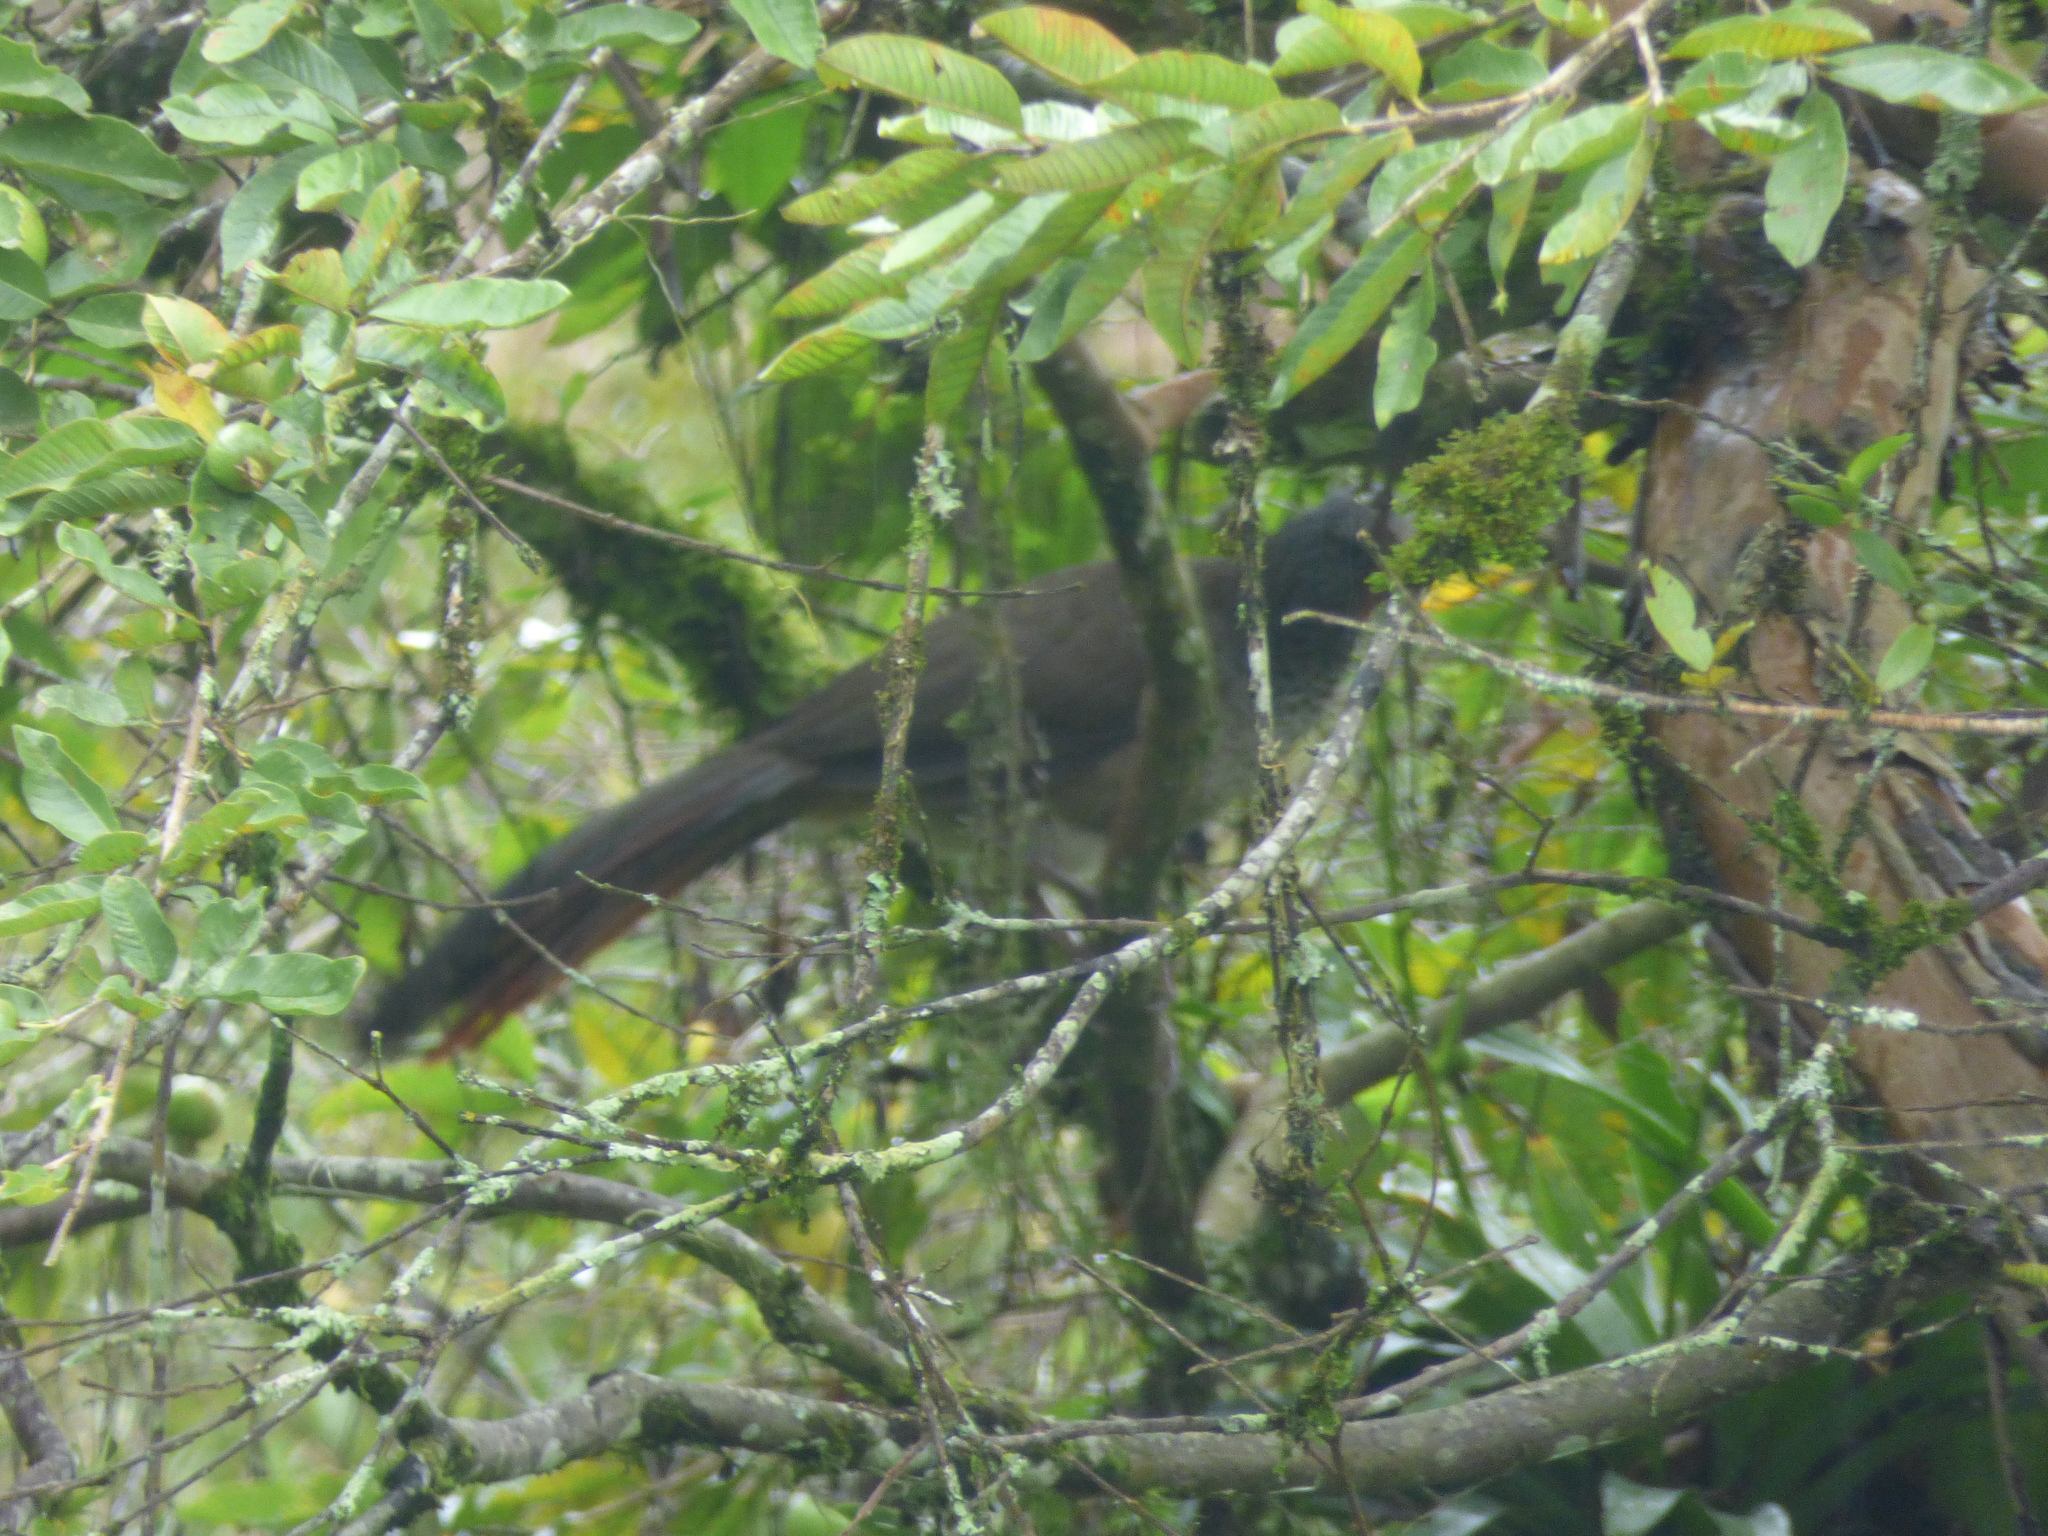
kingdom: Animalia
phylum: Chordata
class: Aves
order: Galliformes
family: Cracidae
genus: Ortalis
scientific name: Ortalis columbiana
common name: Colombian chachalaca
